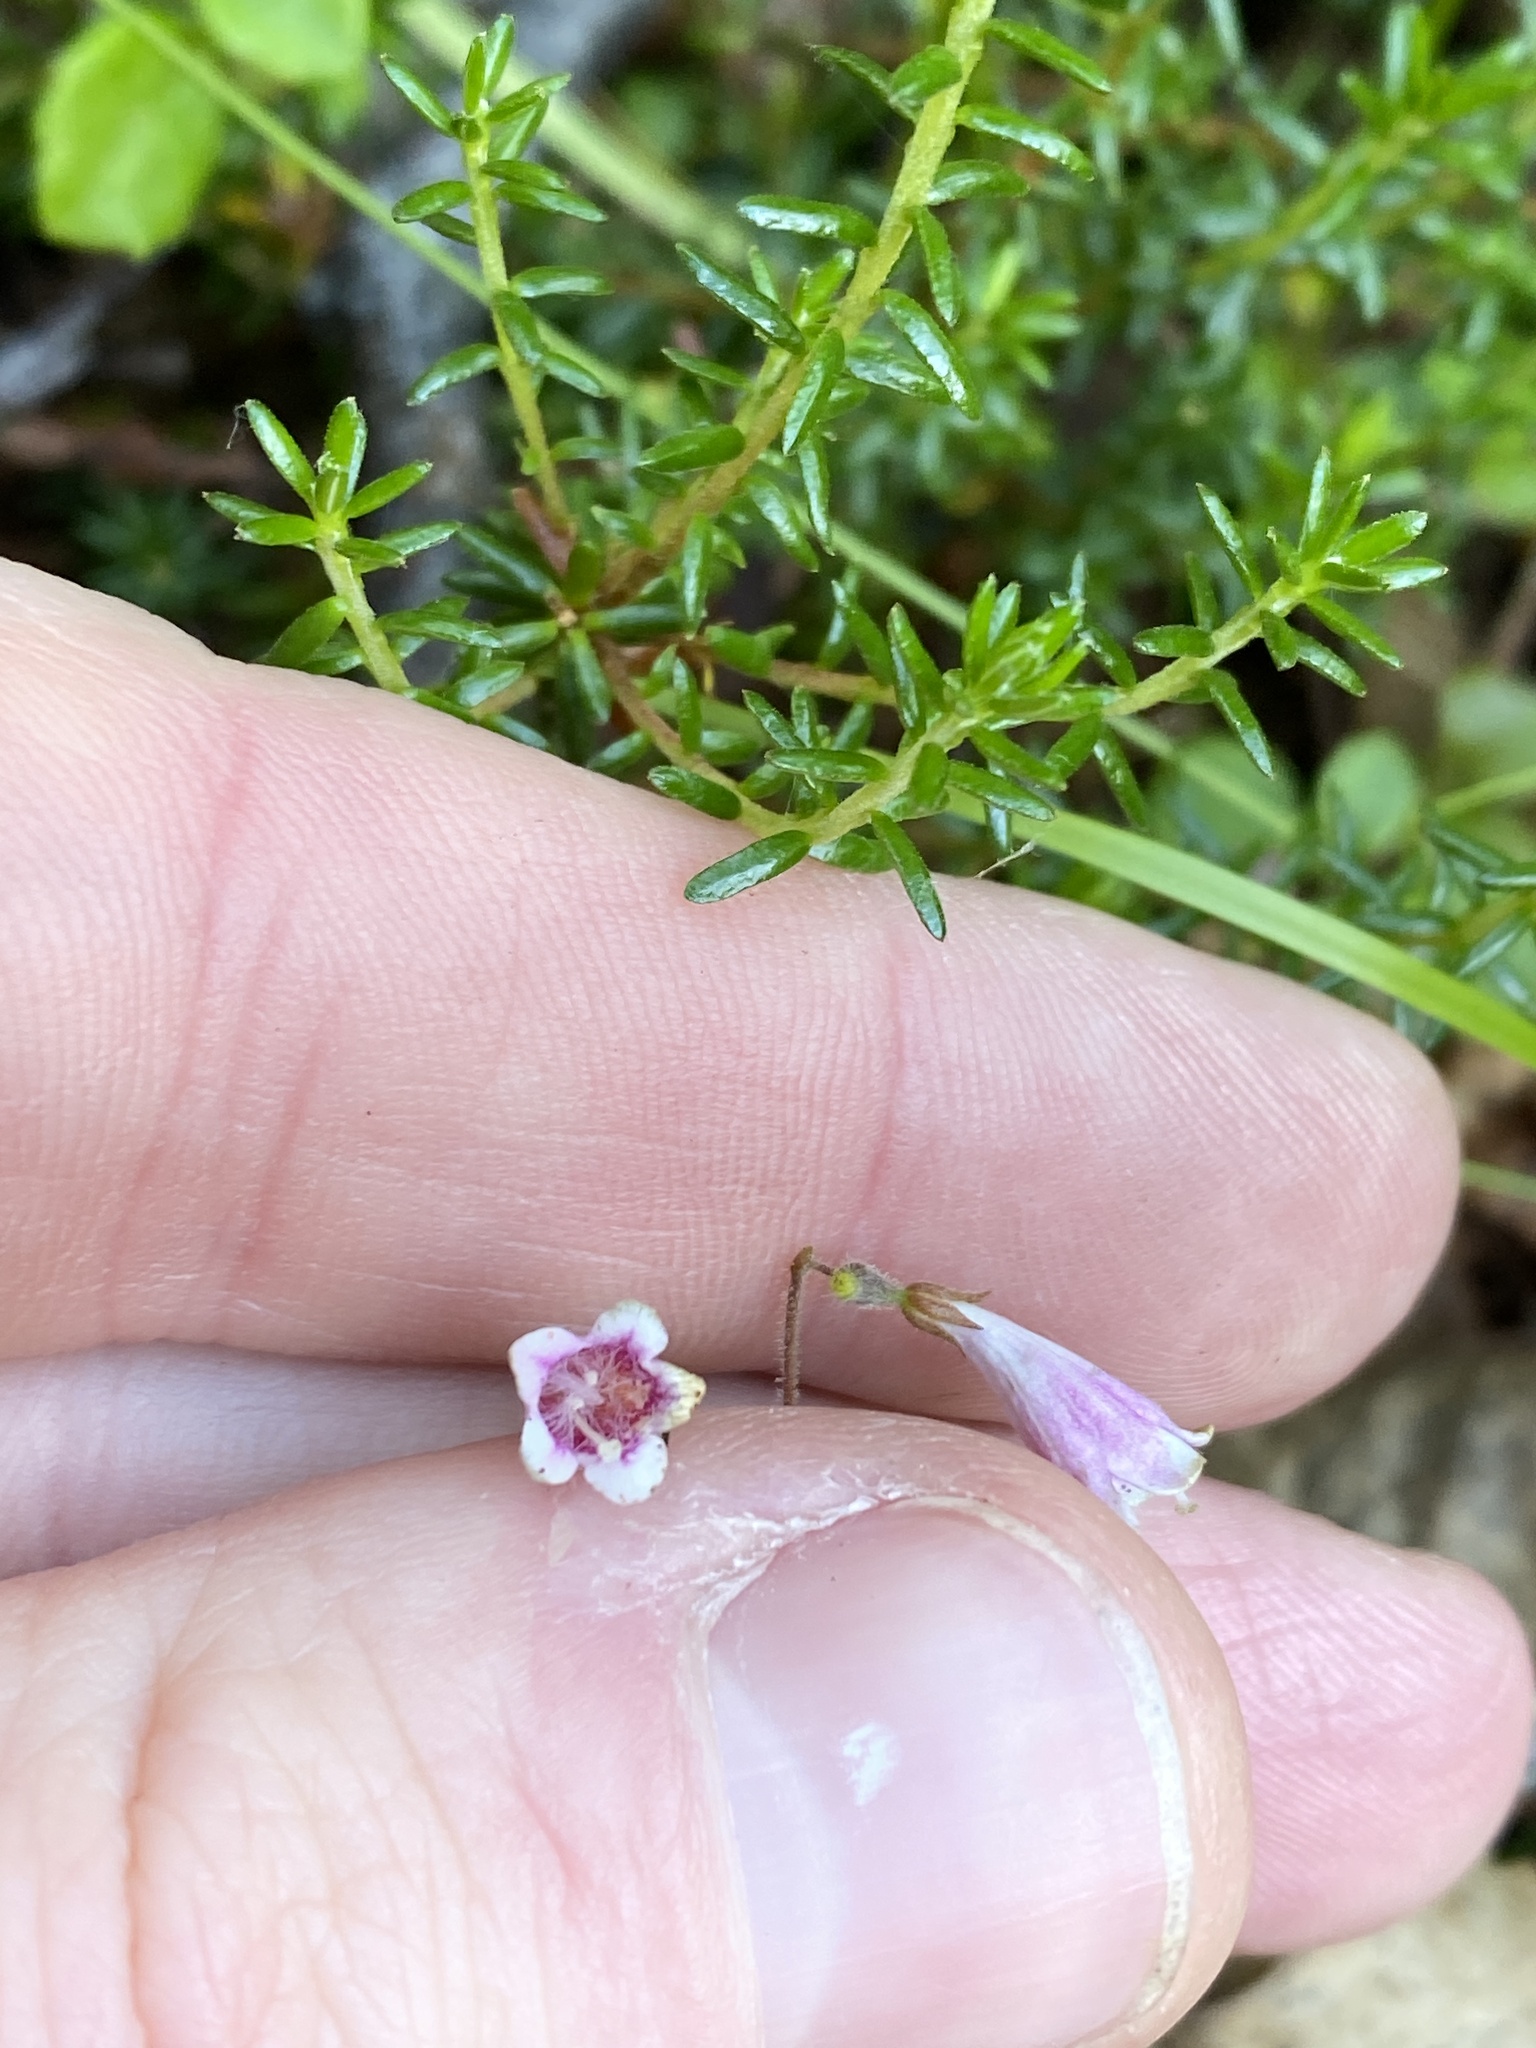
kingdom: Plantae
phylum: Tracheophyta
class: Magnoliopsida
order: Dipsacales
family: Caprifoliaceae
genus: Linnaea
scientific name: Linnaea borealis
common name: Twinflower
